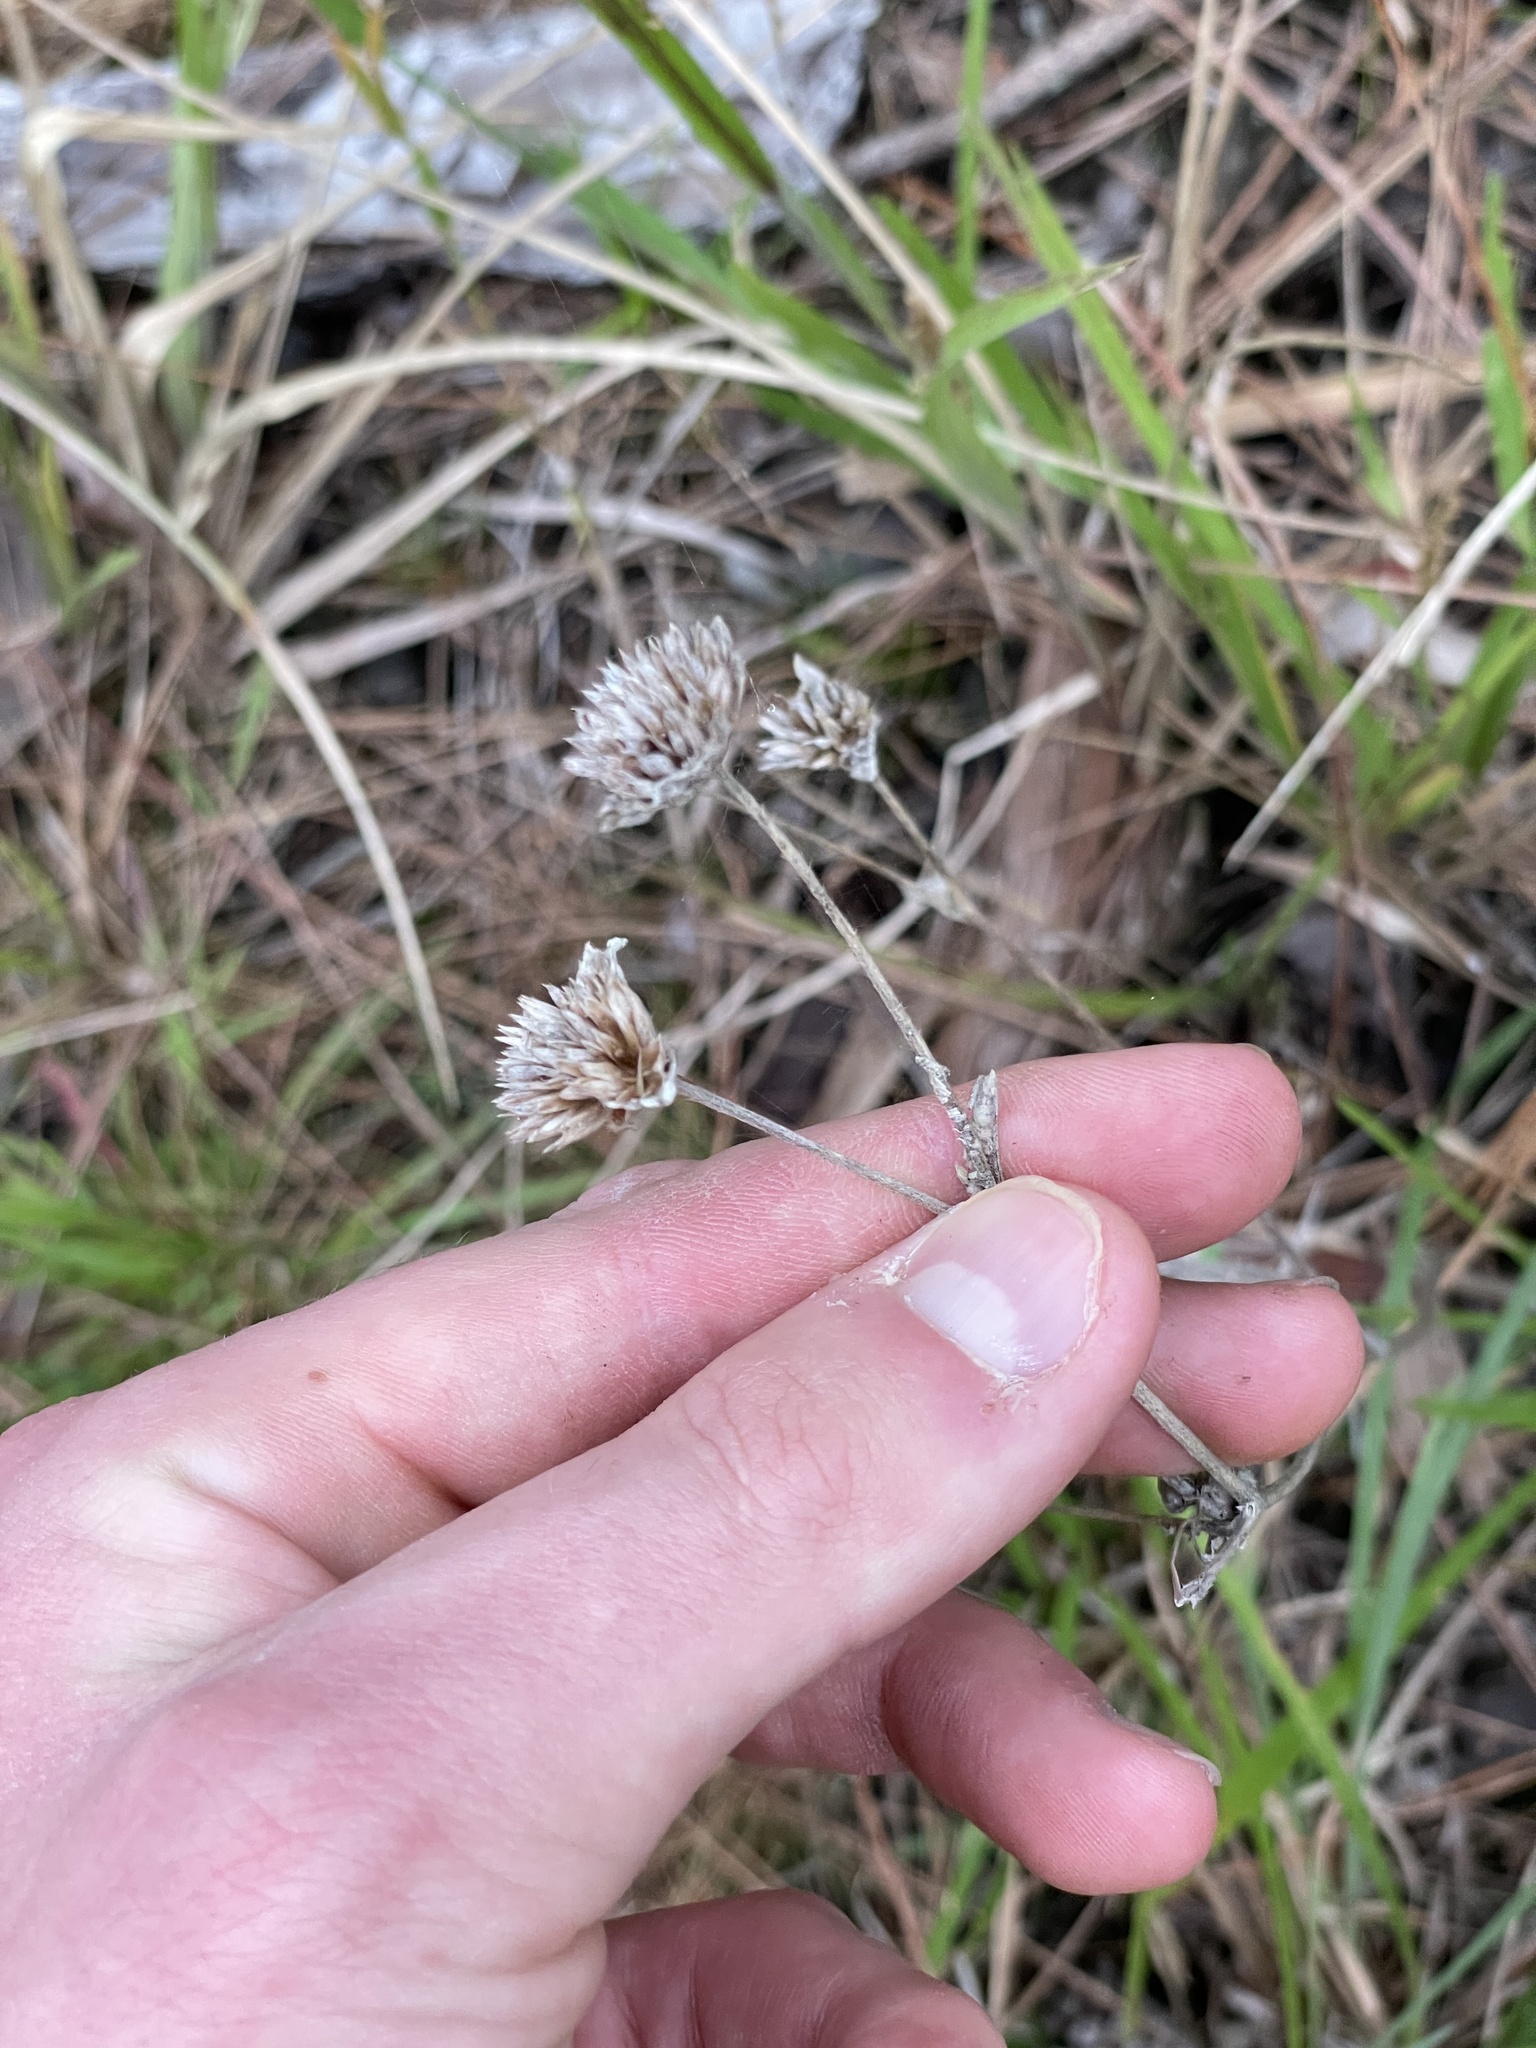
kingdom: Plantae
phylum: Tracheophyta
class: Magnoliopsida
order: Asterales
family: Asteraceae
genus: Elephantopus
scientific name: Elephantopus elatus
